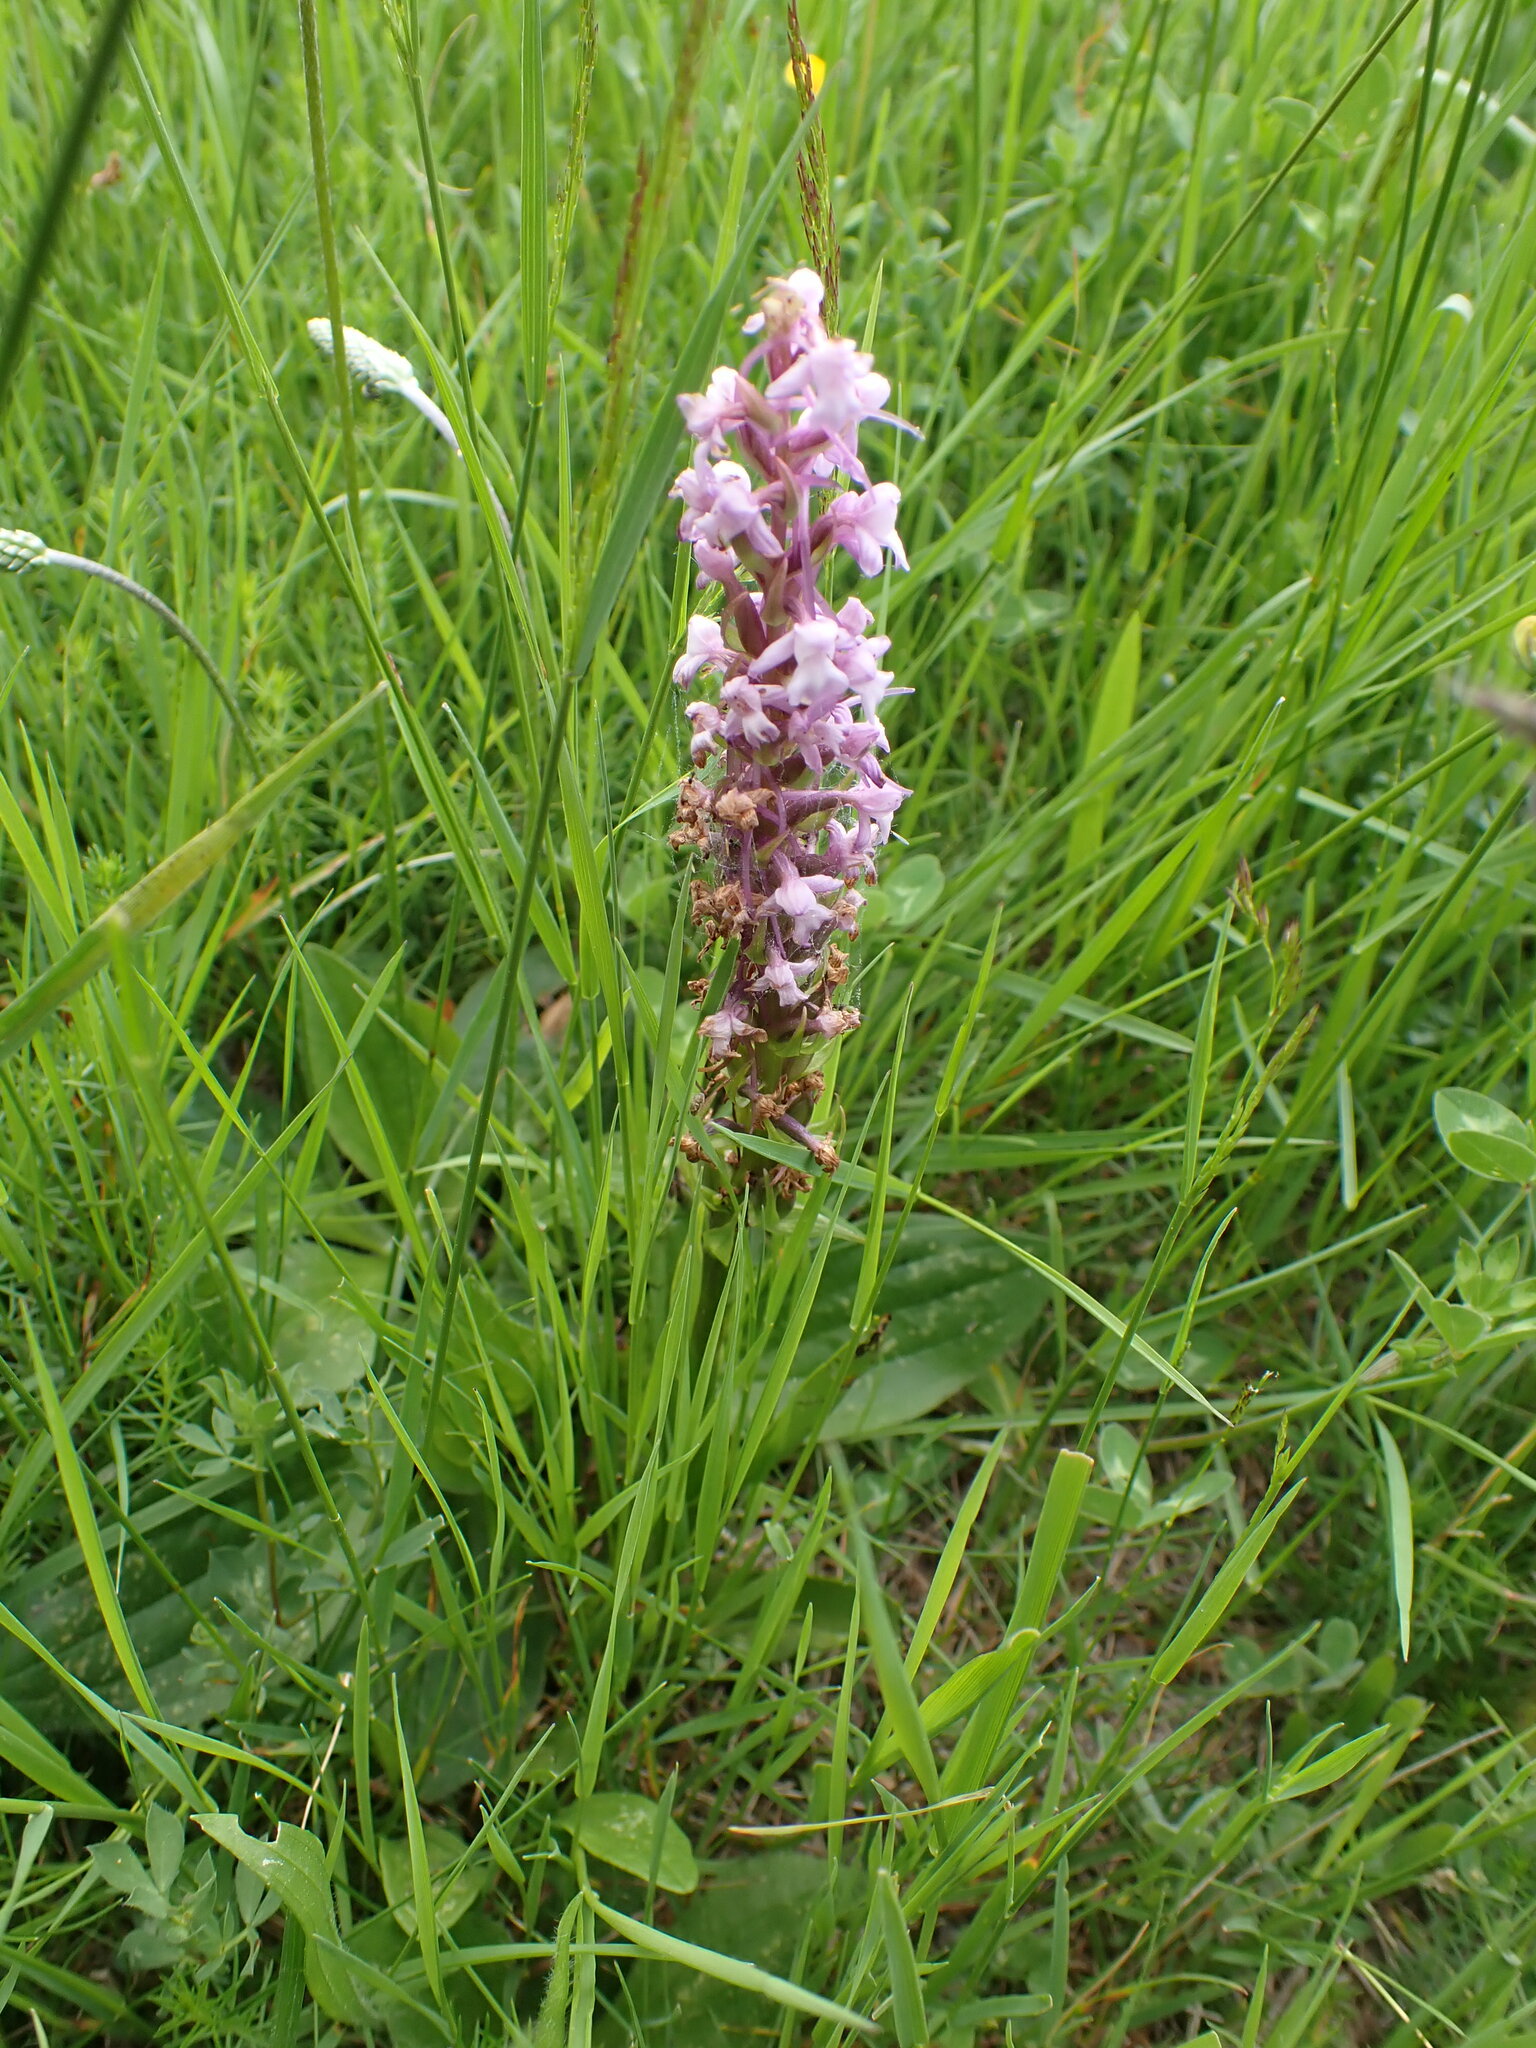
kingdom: Plantae
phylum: Tracheophyta
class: Liliopsida
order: Asparagales
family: Orchidaceae
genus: Gymnadenia
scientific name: Gymnadenia conopsea
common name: Fragrant orchid
